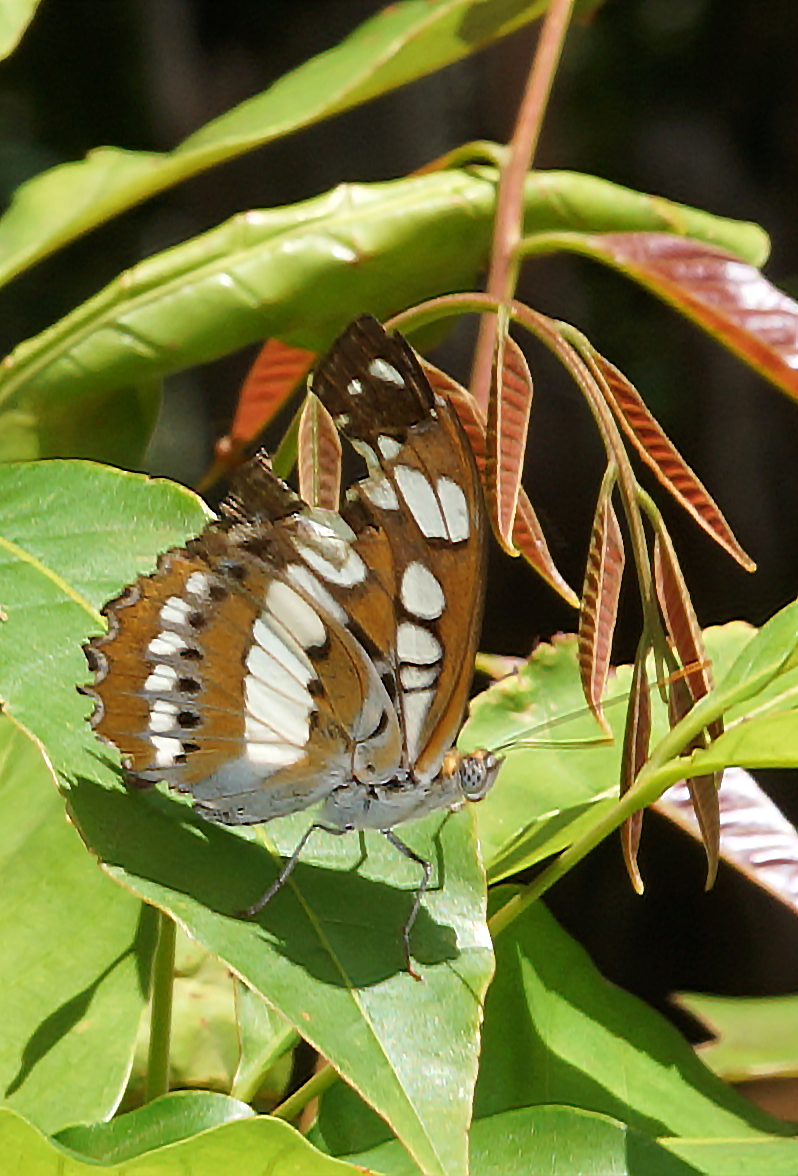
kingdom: Animalia
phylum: Arthropoda
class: Insecta
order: Lepidoptera
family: Nymphalidae
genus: Parathyma
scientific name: Parathyma perius
